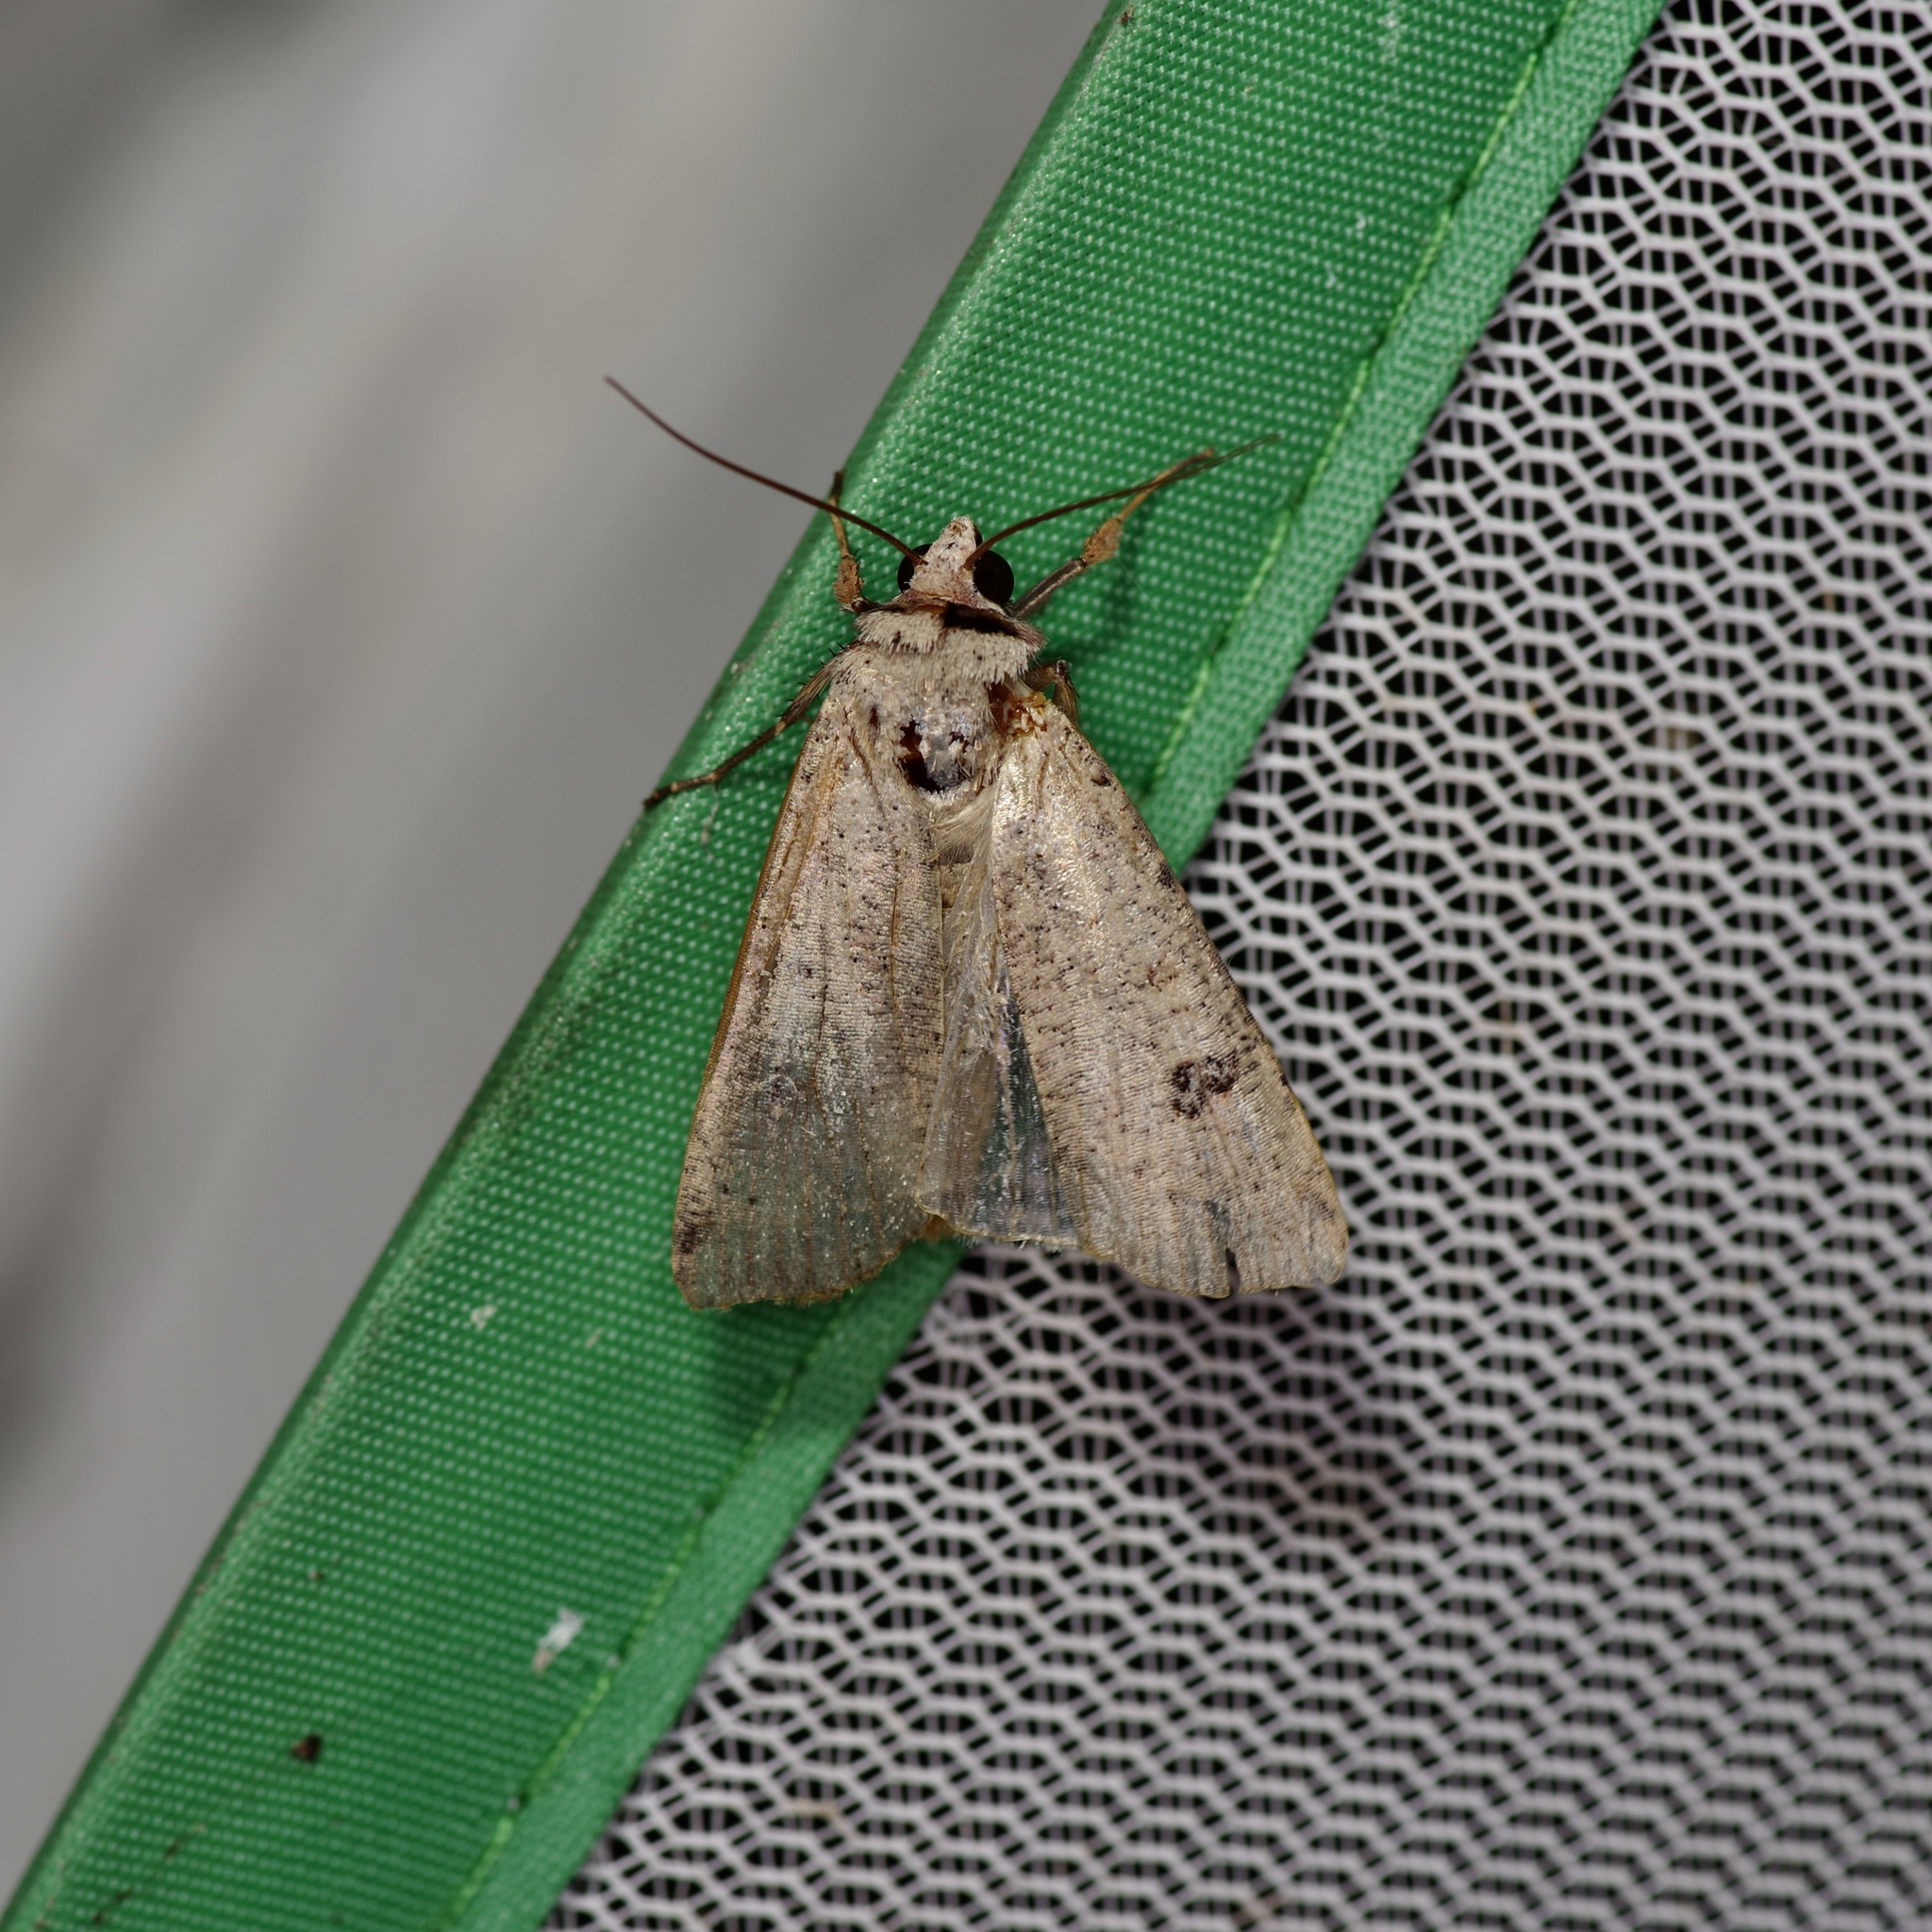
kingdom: Animalia
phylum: Arthropoda
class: Insecta
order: Lepidoptera
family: Noctuidae
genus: Anicla
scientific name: Anicla infecta
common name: Green cutworm
